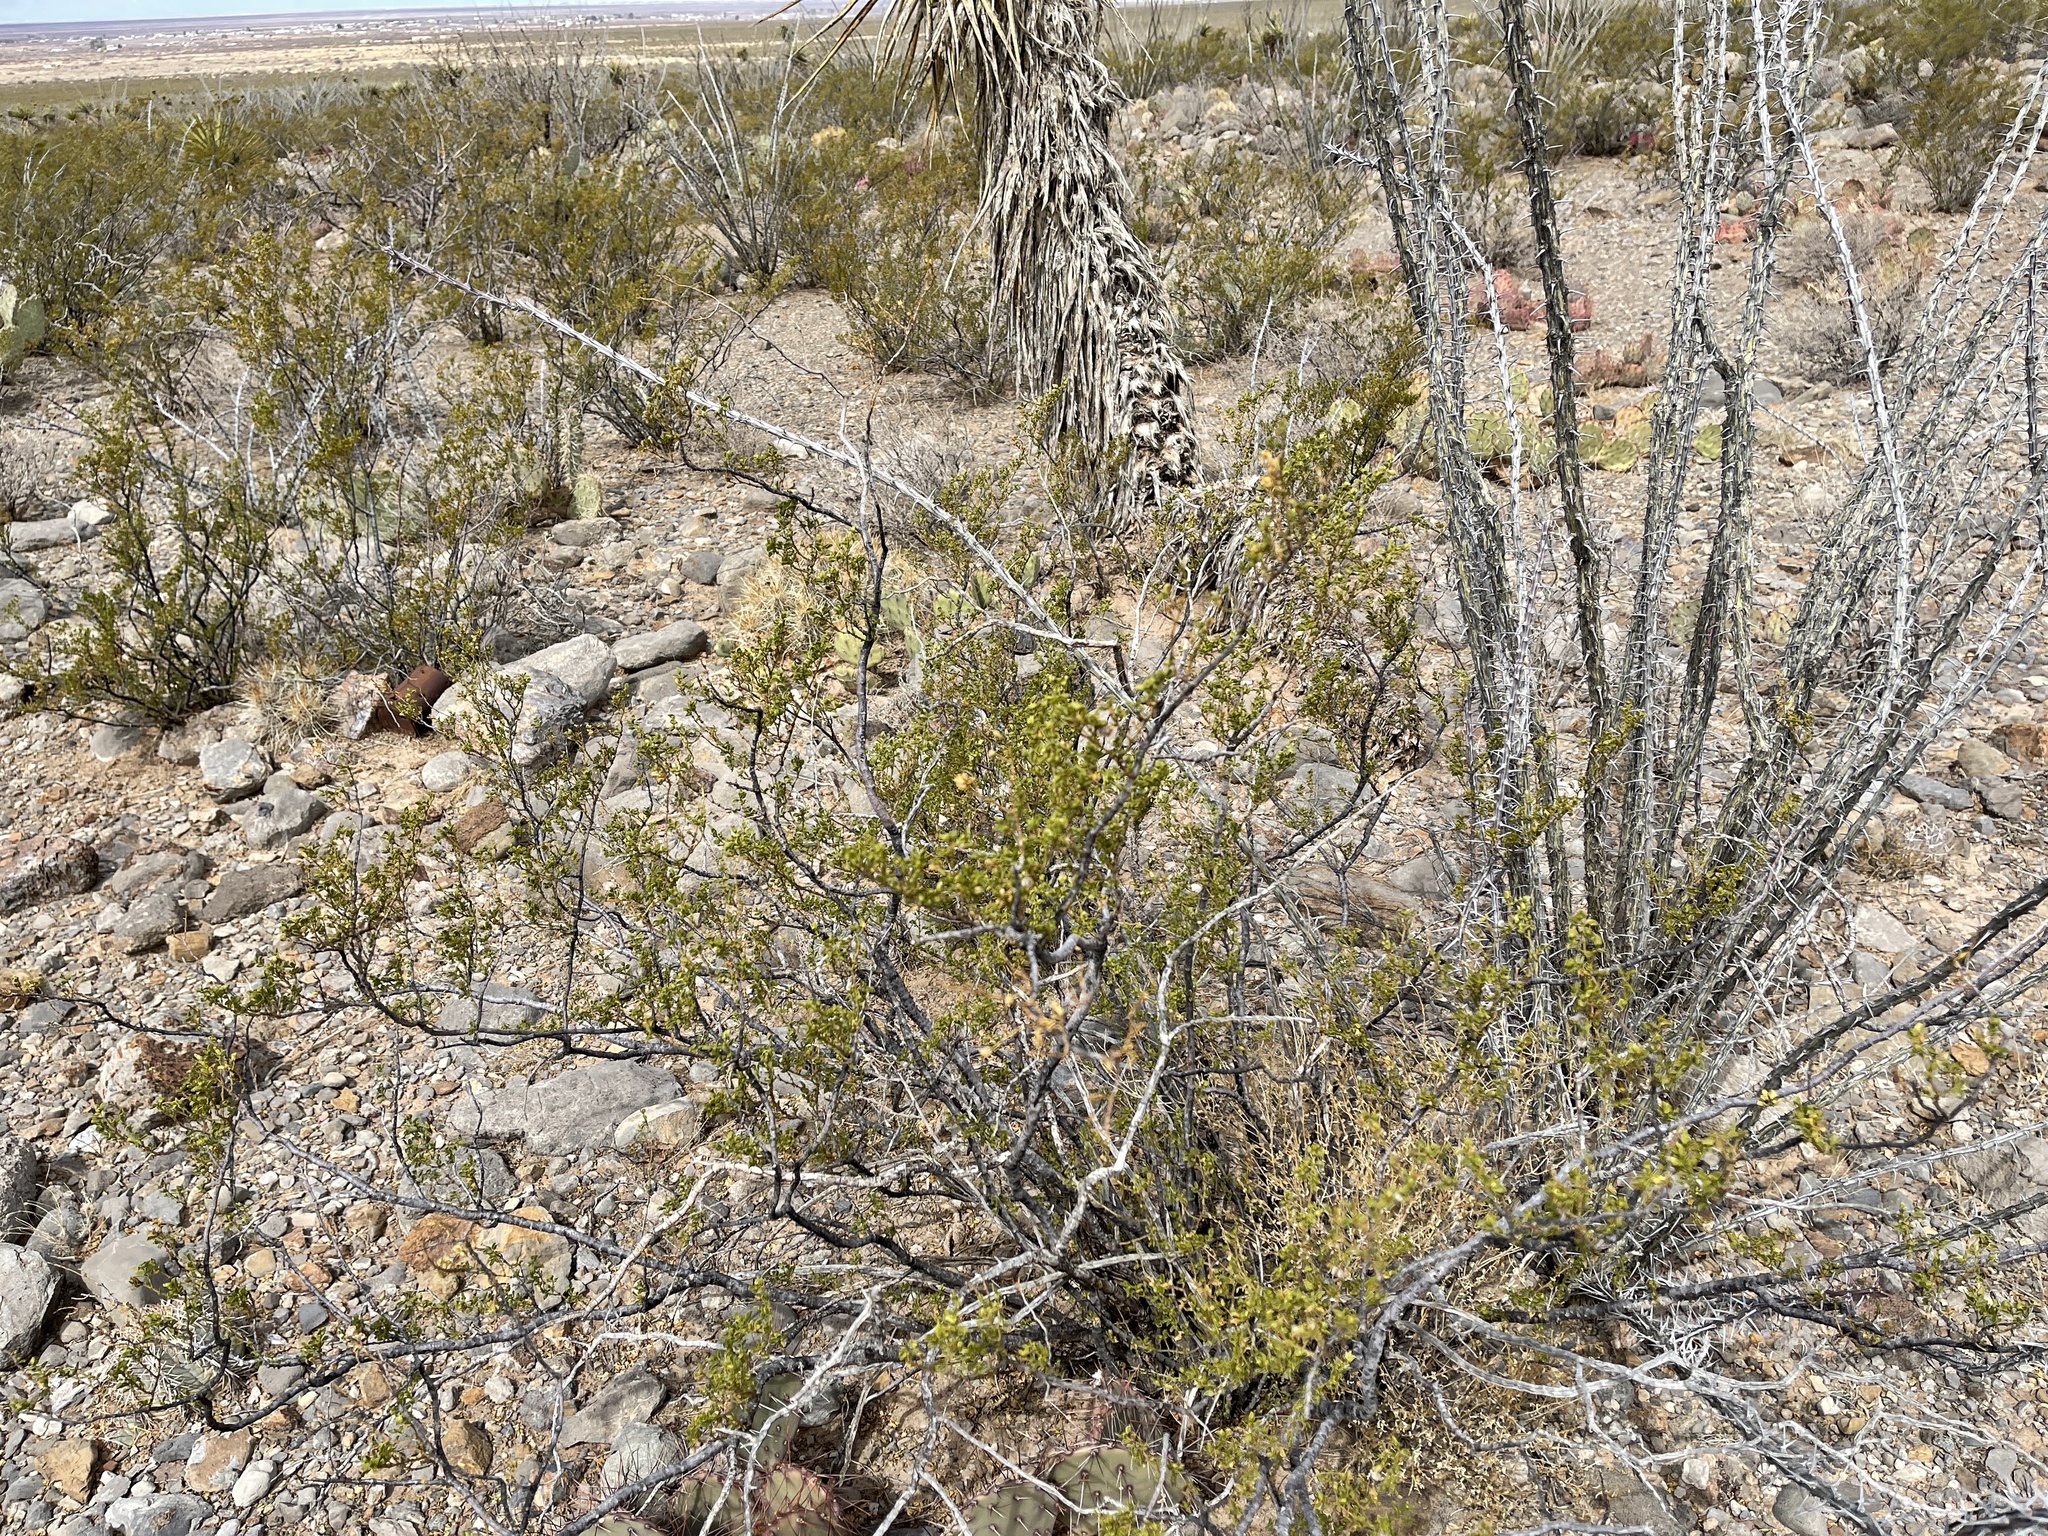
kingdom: Plantae
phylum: Tracheophyta
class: Magnoliopsida
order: Zygophyllales
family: Zygophyllaceae
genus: Larrea
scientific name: Larrea tridentata
